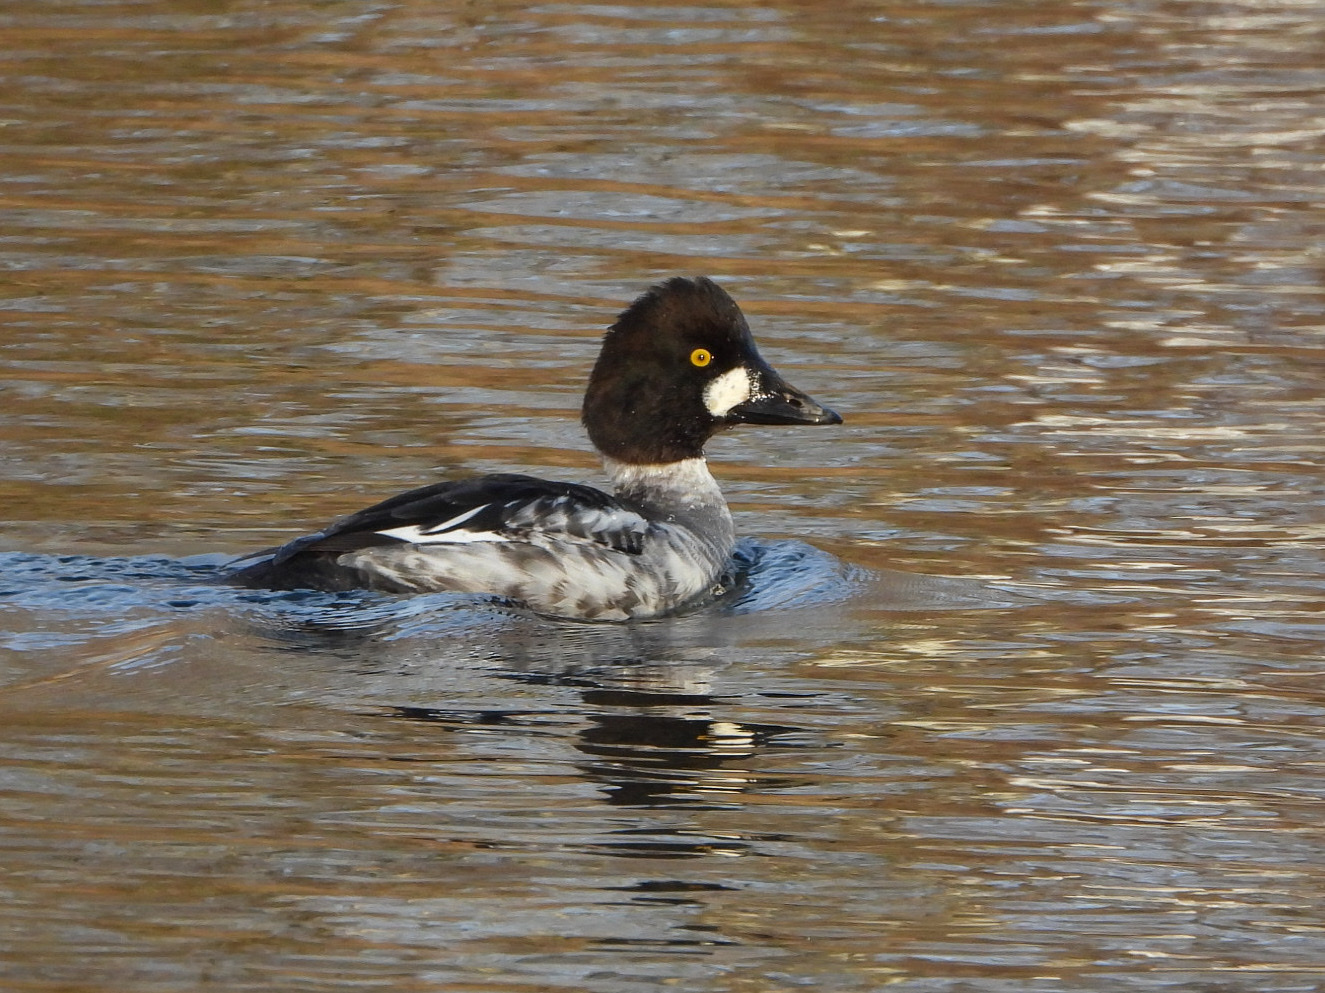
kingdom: Animalia
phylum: Chordata
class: Aves
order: Anseriformes
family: Anatidae
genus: Bucephala
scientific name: Bucephala clangula
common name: Common goldeneye
